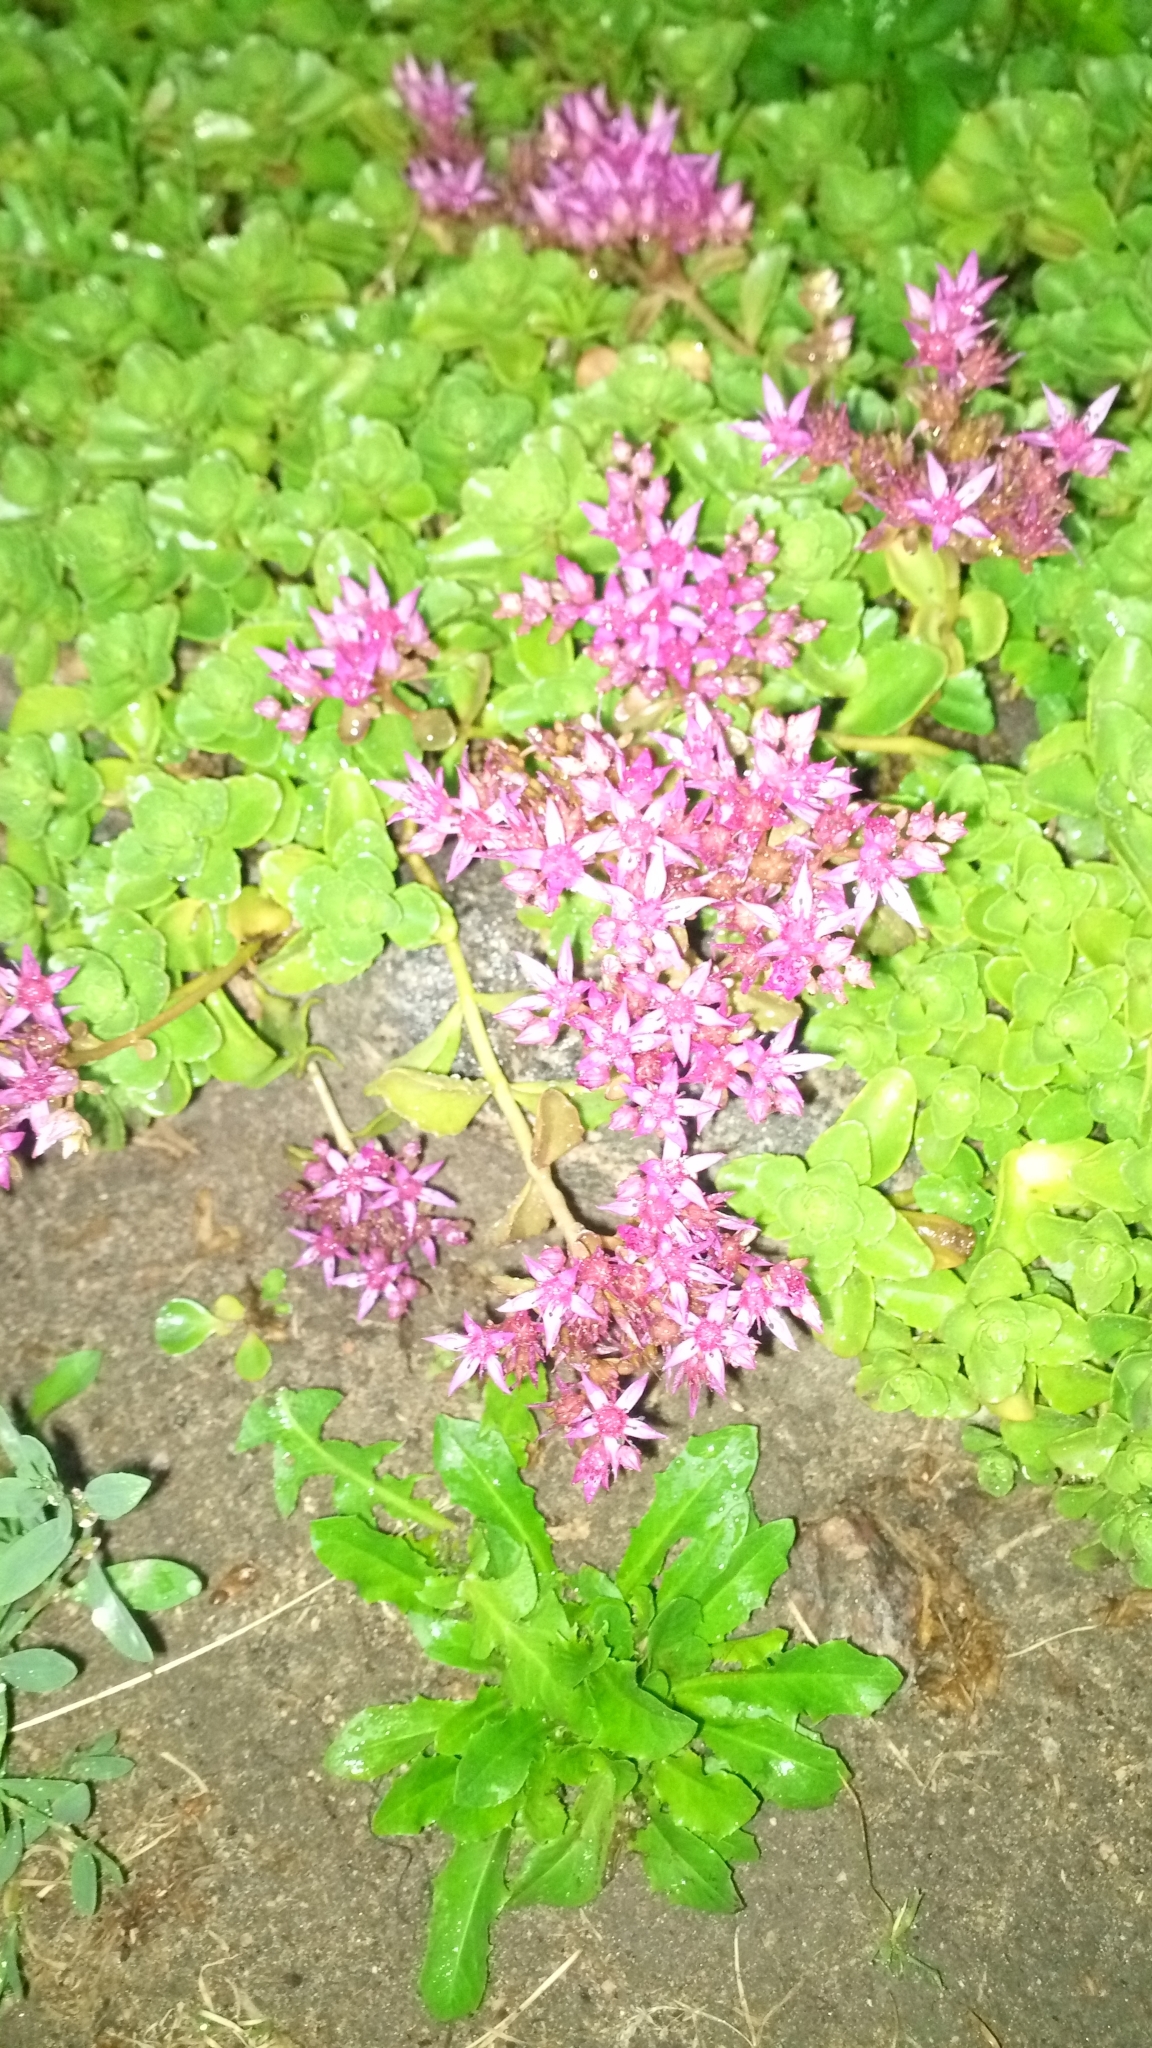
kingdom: Plantae
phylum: Tracheophyta
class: Magnoliopsida
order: Saxifragales
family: Crassulaceae
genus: Phedimus
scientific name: Phedimus spurius
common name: Caucasian stonecrop
